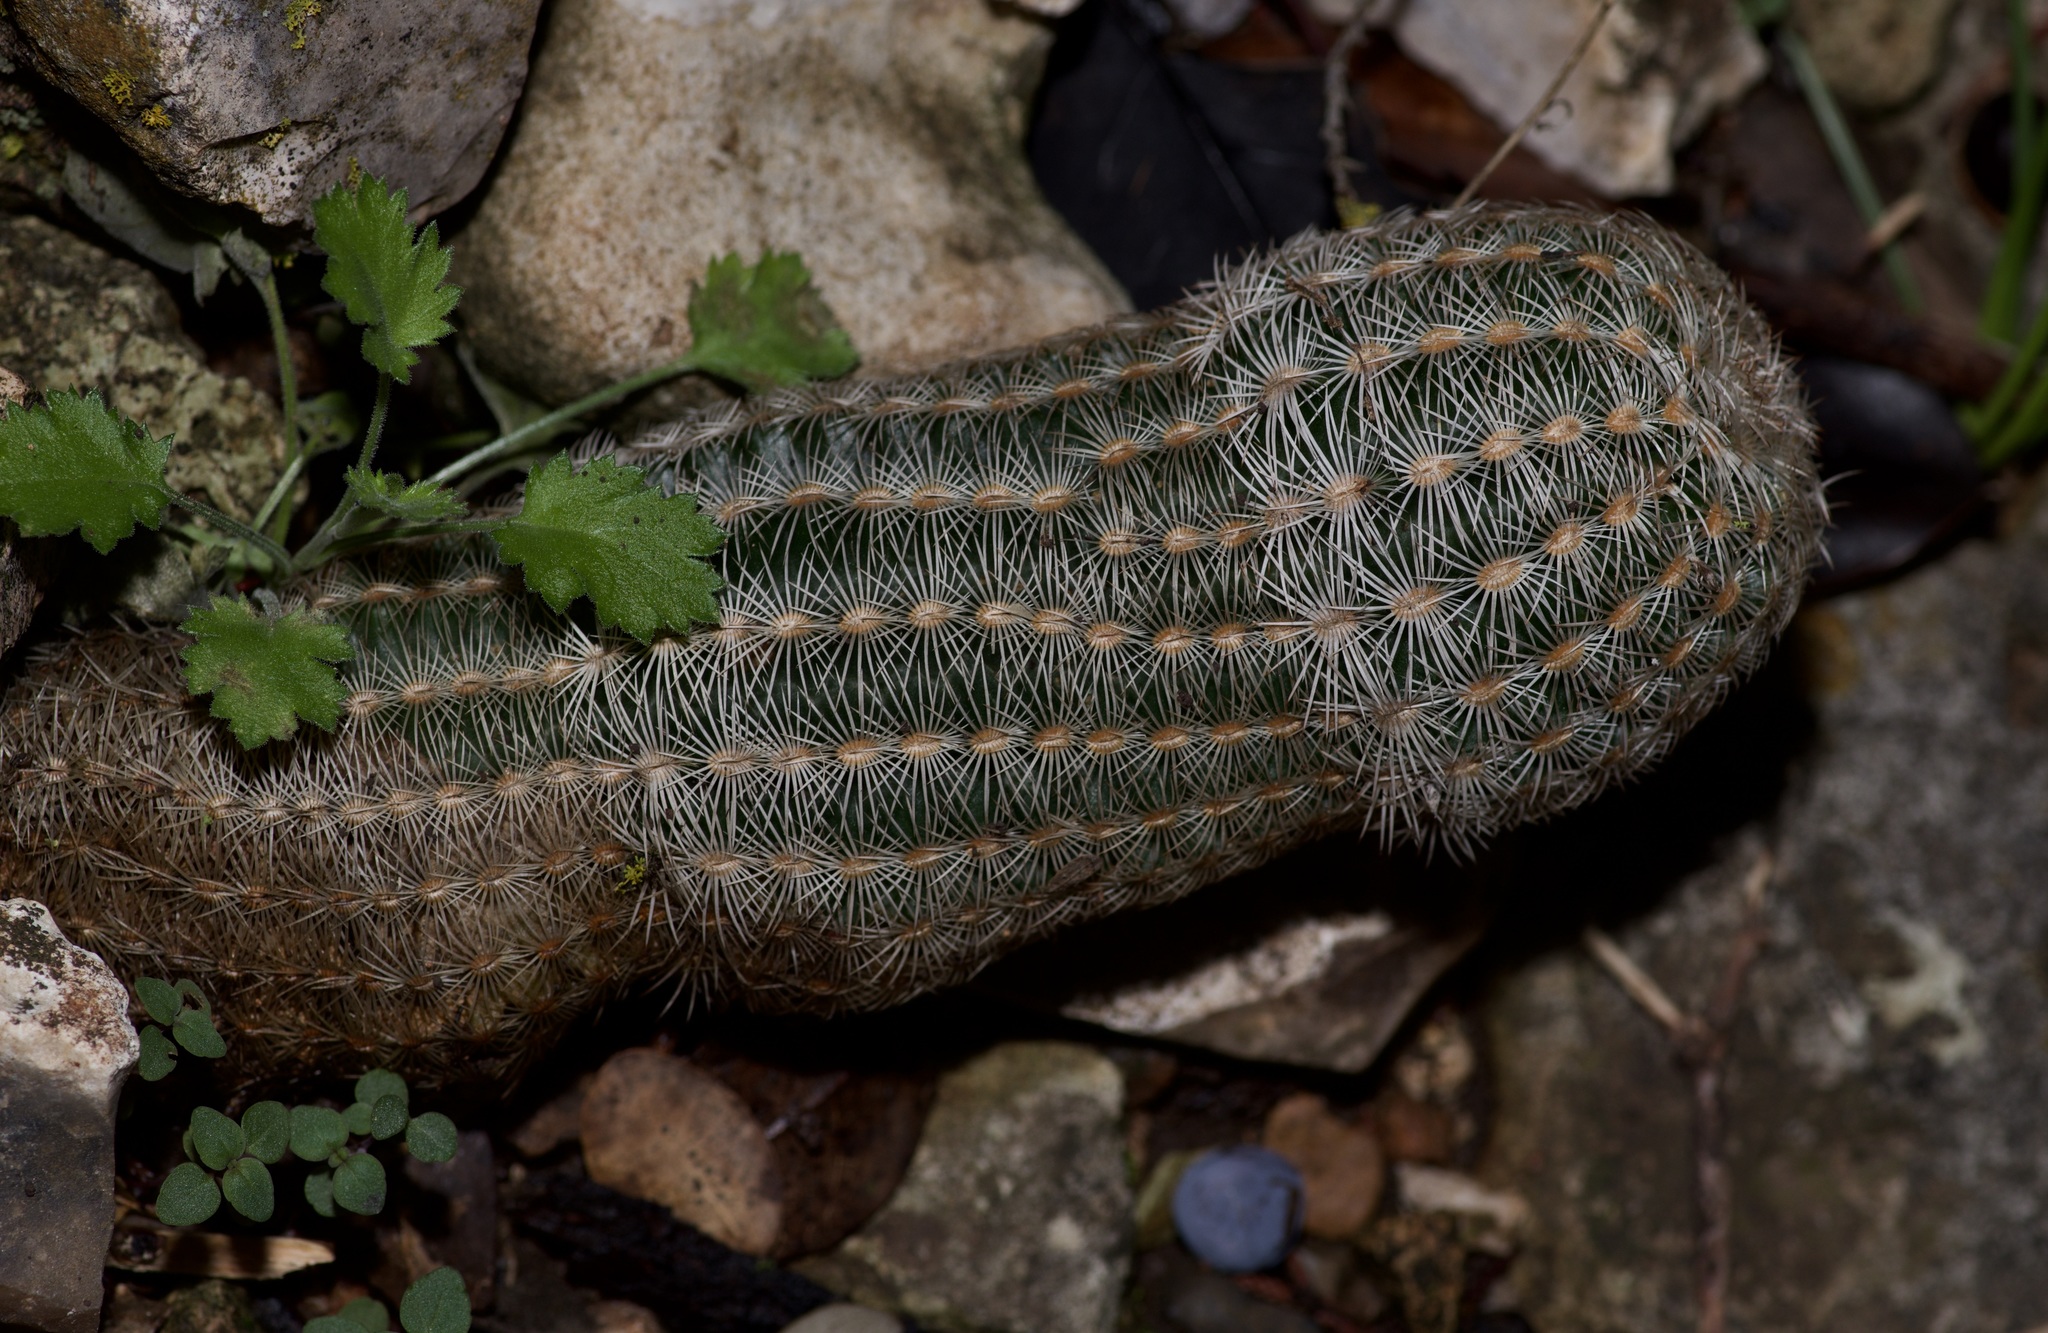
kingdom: Plantae
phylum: Tracheophyta
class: Magnoliopsida
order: Caryophyllales
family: Cactaceae
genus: Echinocereus
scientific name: Echinocereus reichenbachii
